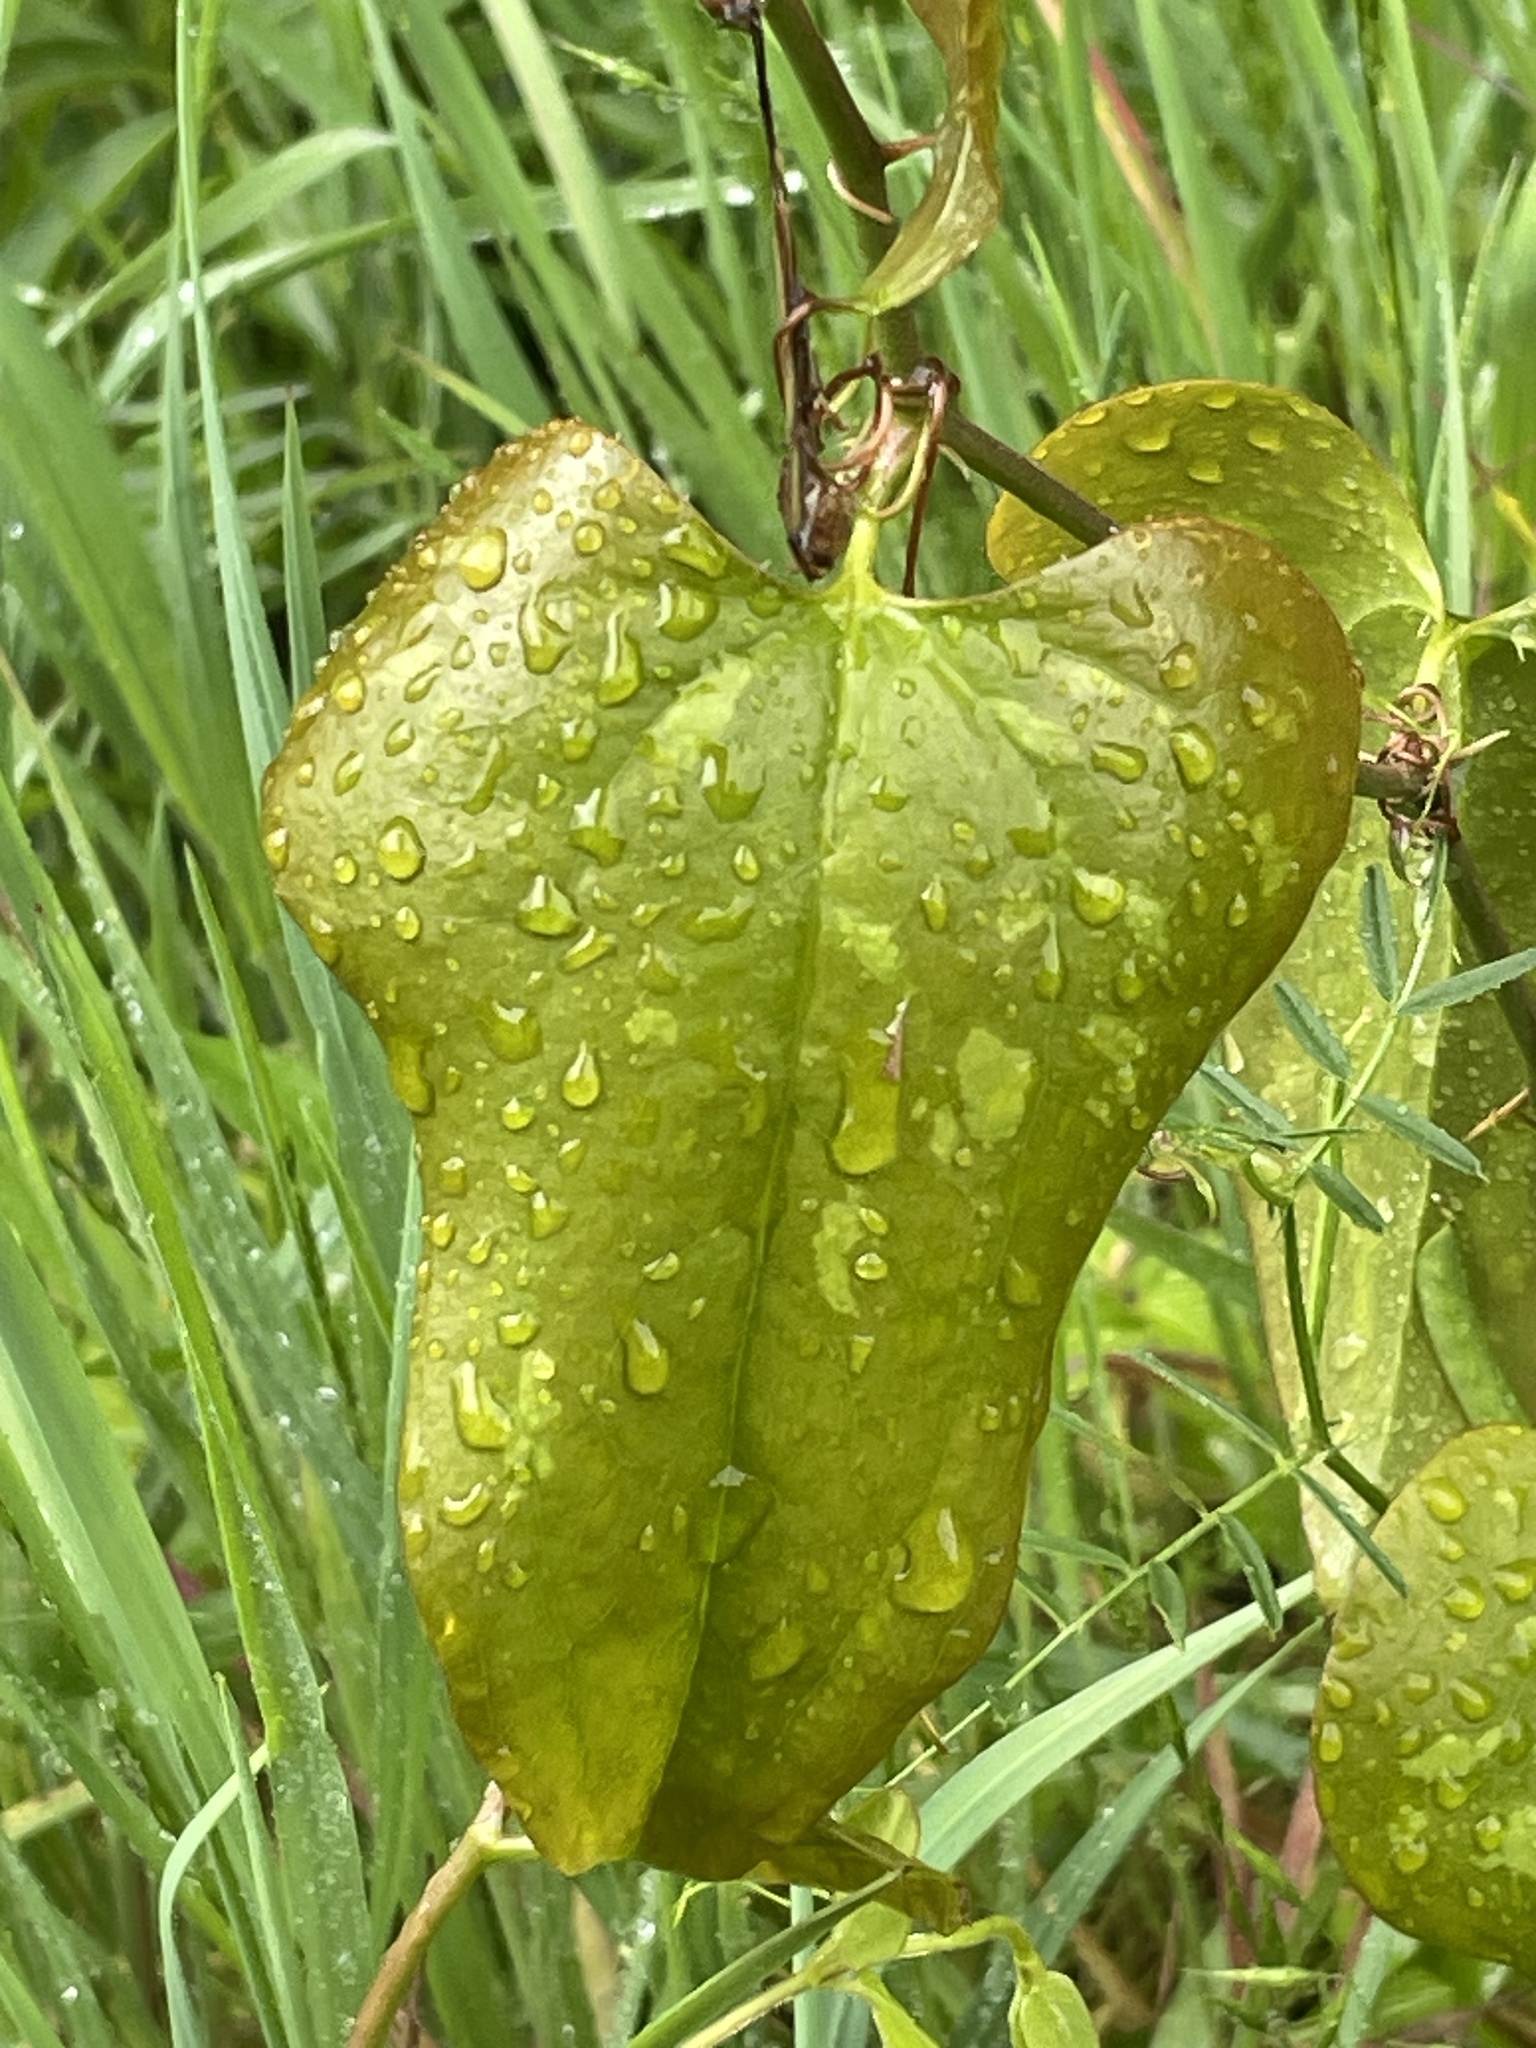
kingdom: Plantae
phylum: Tracheophyta
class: Liliopsida
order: Liliales
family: Smilacaceae
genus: Smilax
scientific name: Smilax bona-nox
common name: Catbrier
